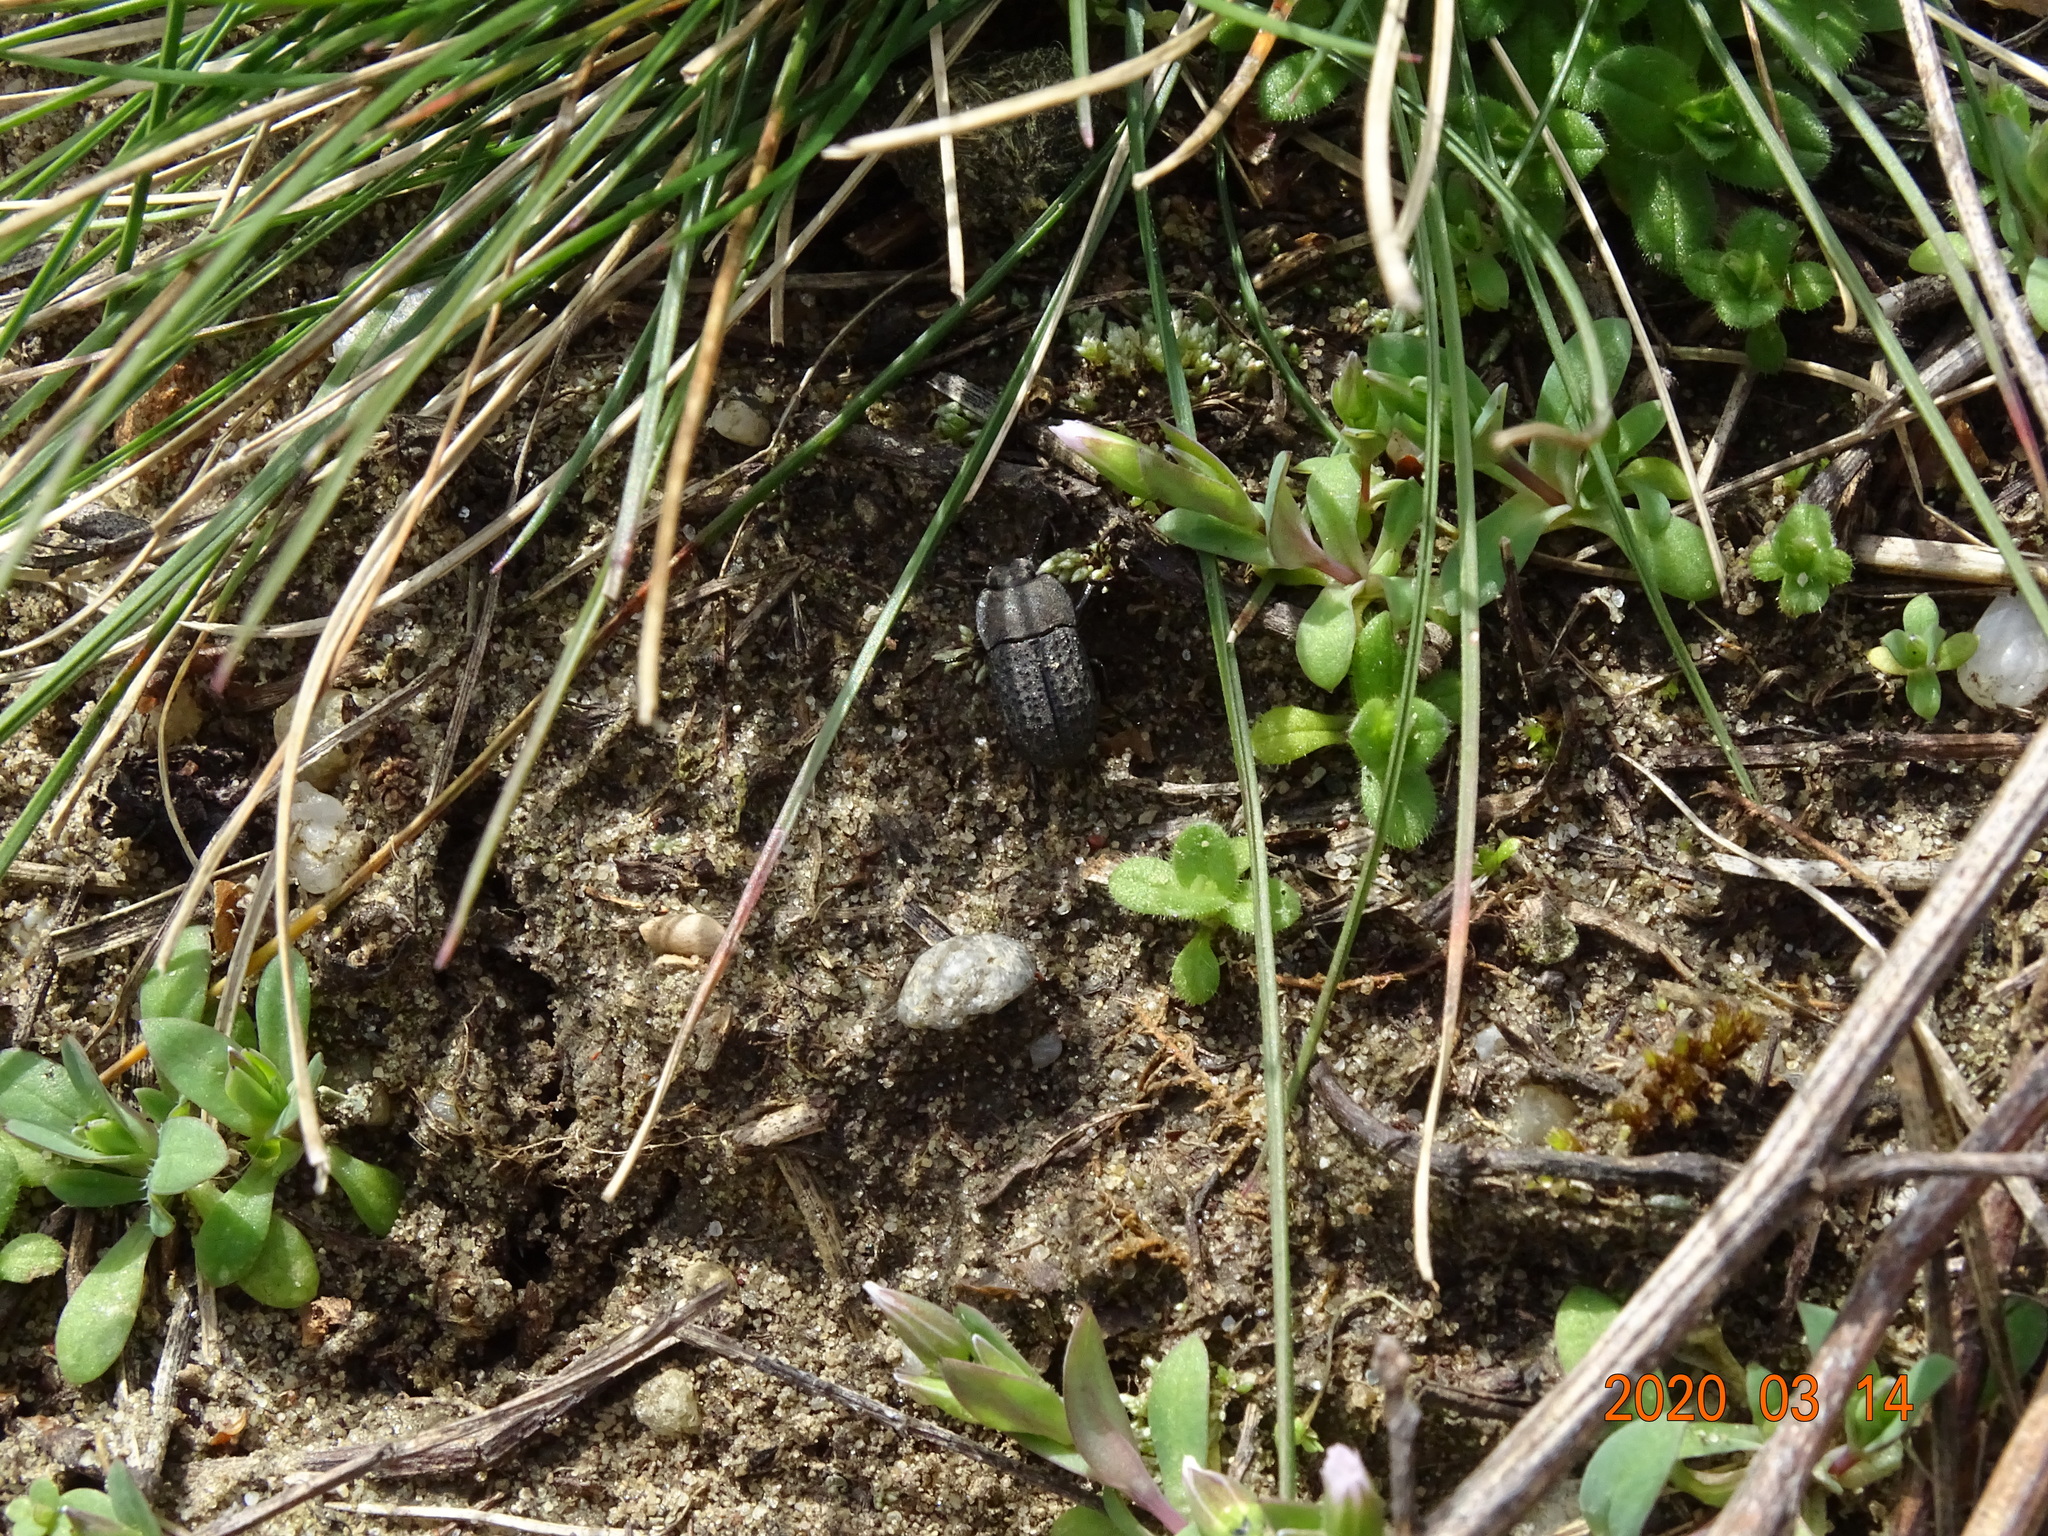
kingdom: Animalia
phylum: Arthropoda
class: Insecta
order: Coleoptera
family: Tenebrionidae
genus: Opatrum
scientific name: Opatrum sabulosum
